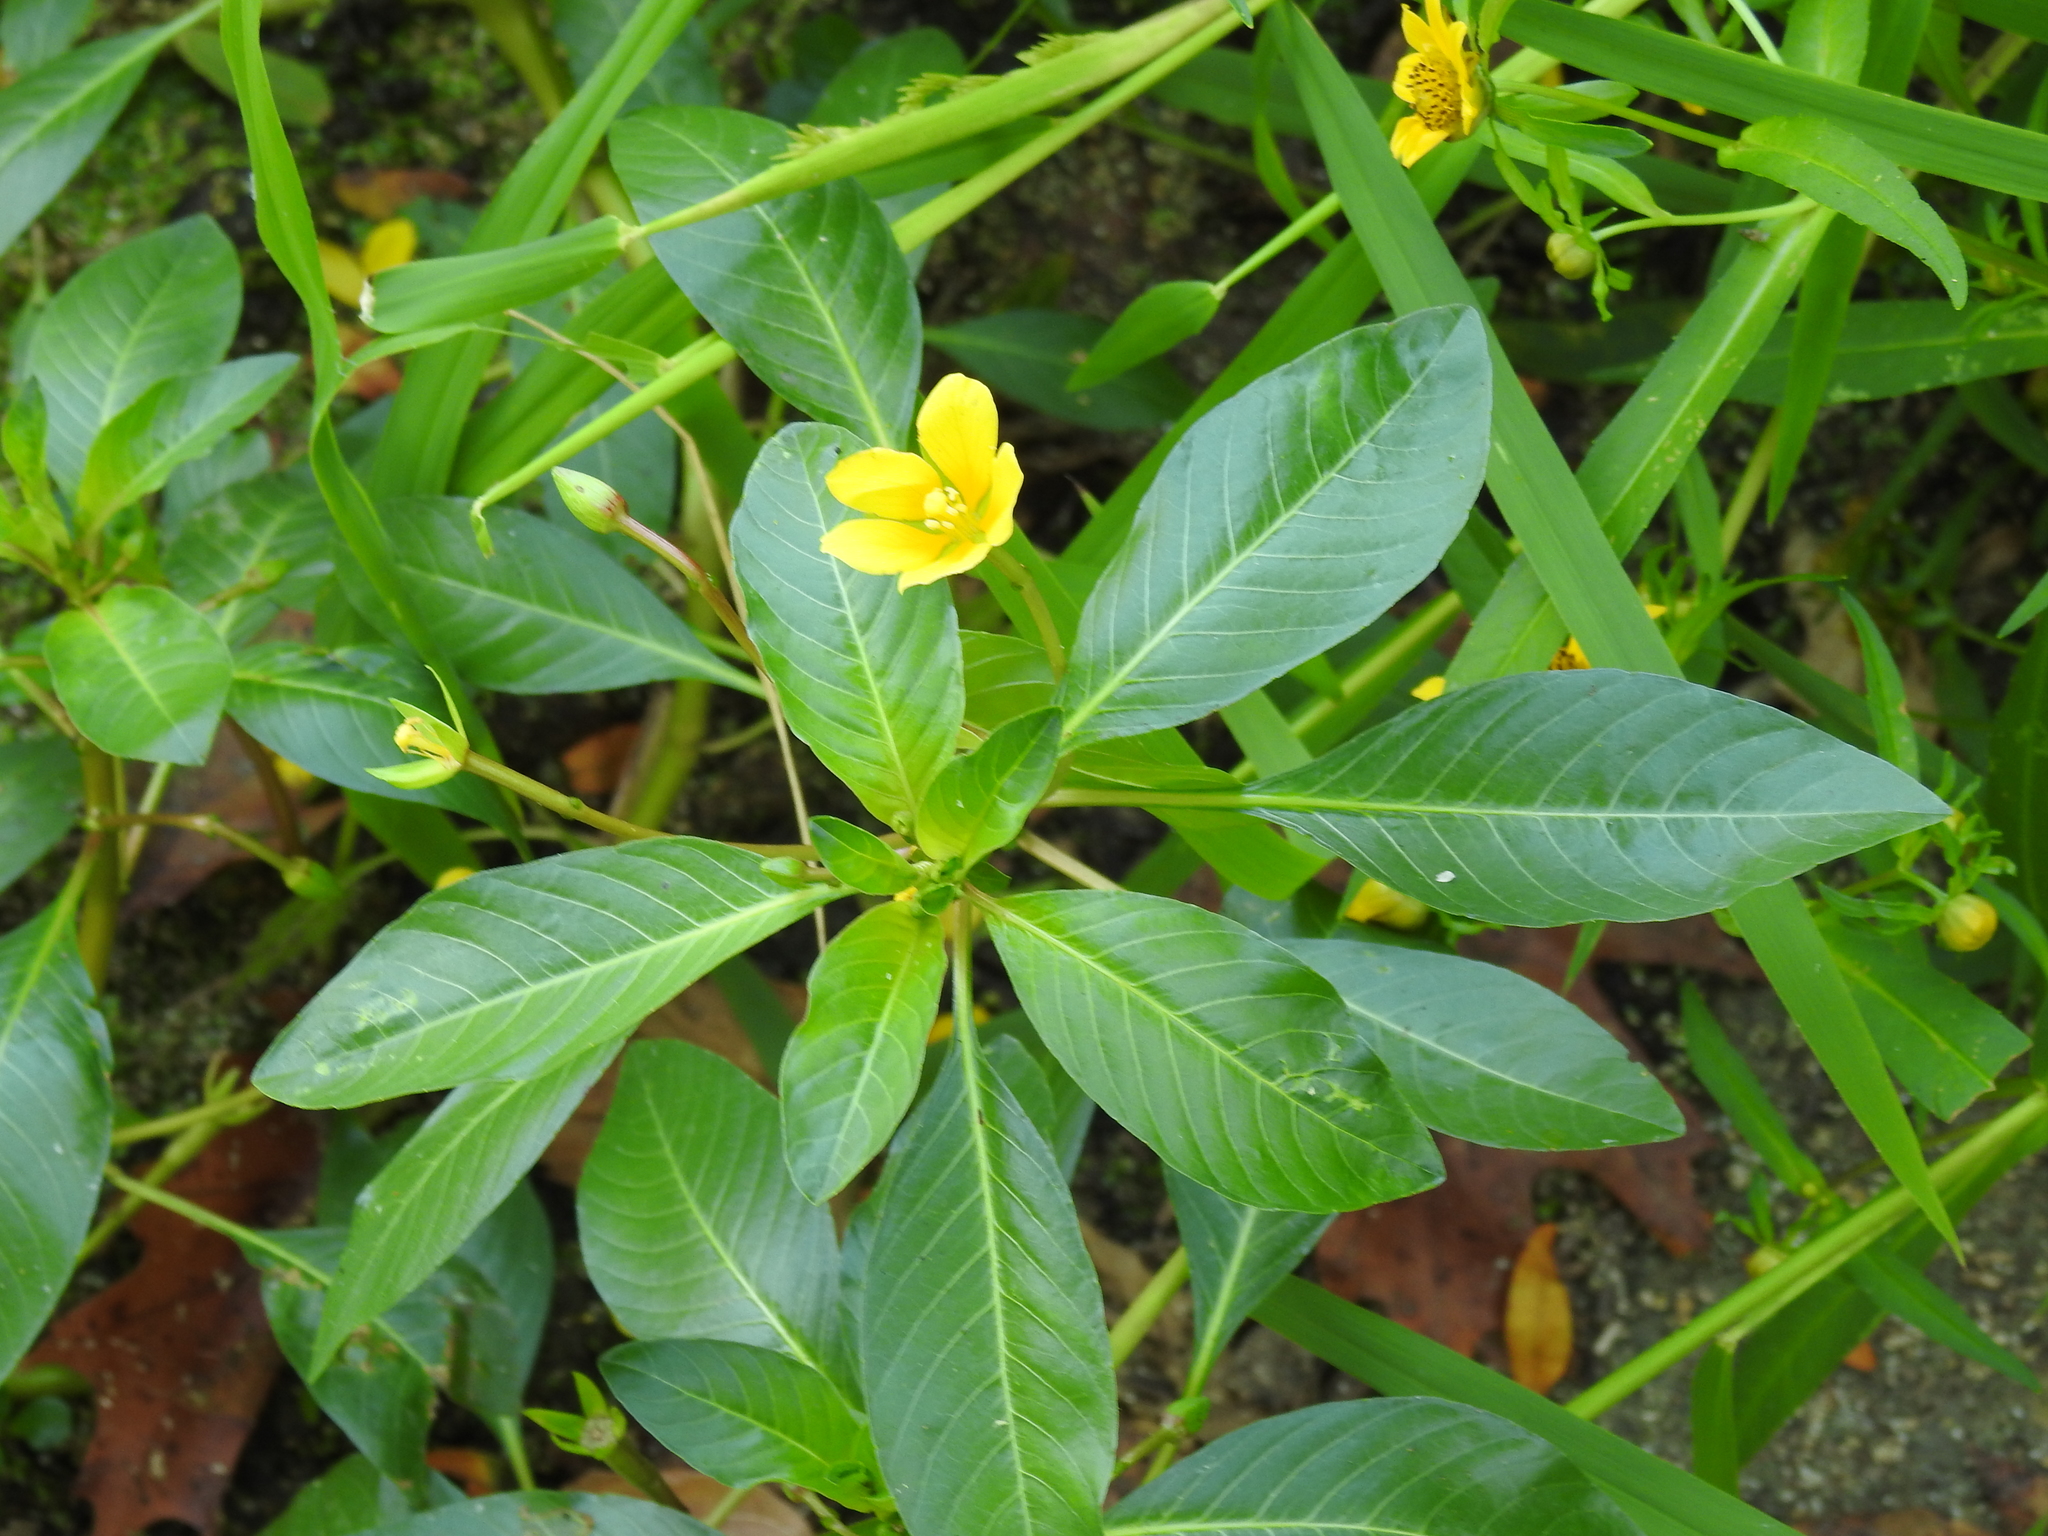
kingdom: Plantae
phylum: Tracheophyta
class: Magnoliopsida
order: Myrtales
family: Onagraceae
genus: Ludwigia
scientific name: Ludwigia peploides
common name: Floating primrose-willow
